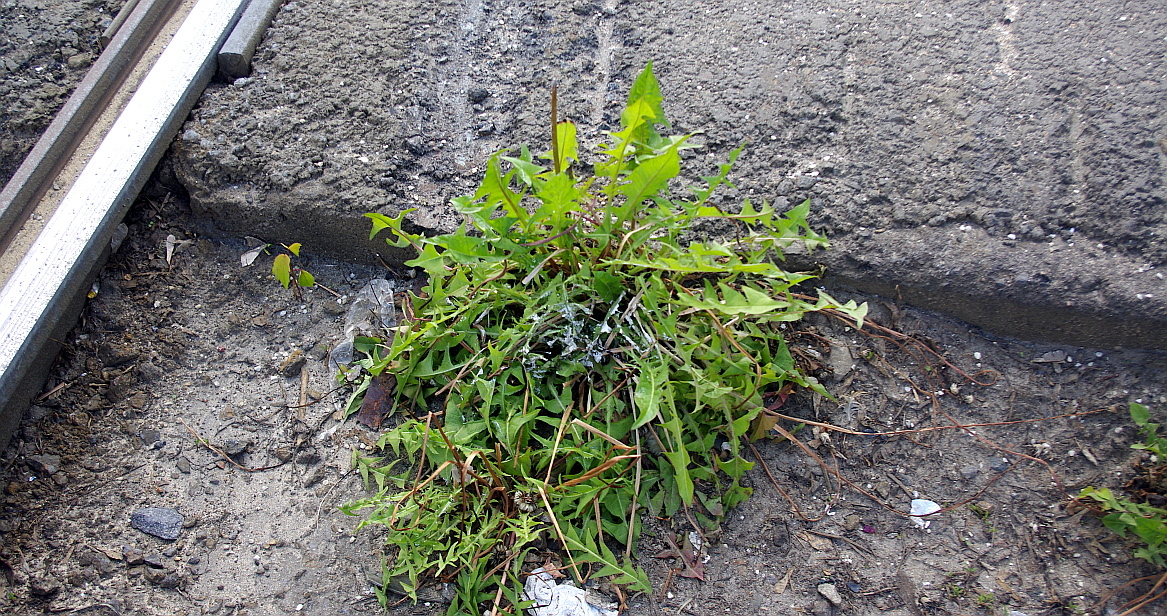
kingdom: Plantae
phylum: Tracheophyta
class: Magnoliopsida
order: Asterales
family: Asteraceae
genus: Taraxacum
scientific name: Taraxacum officinale
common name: Common dandelion
